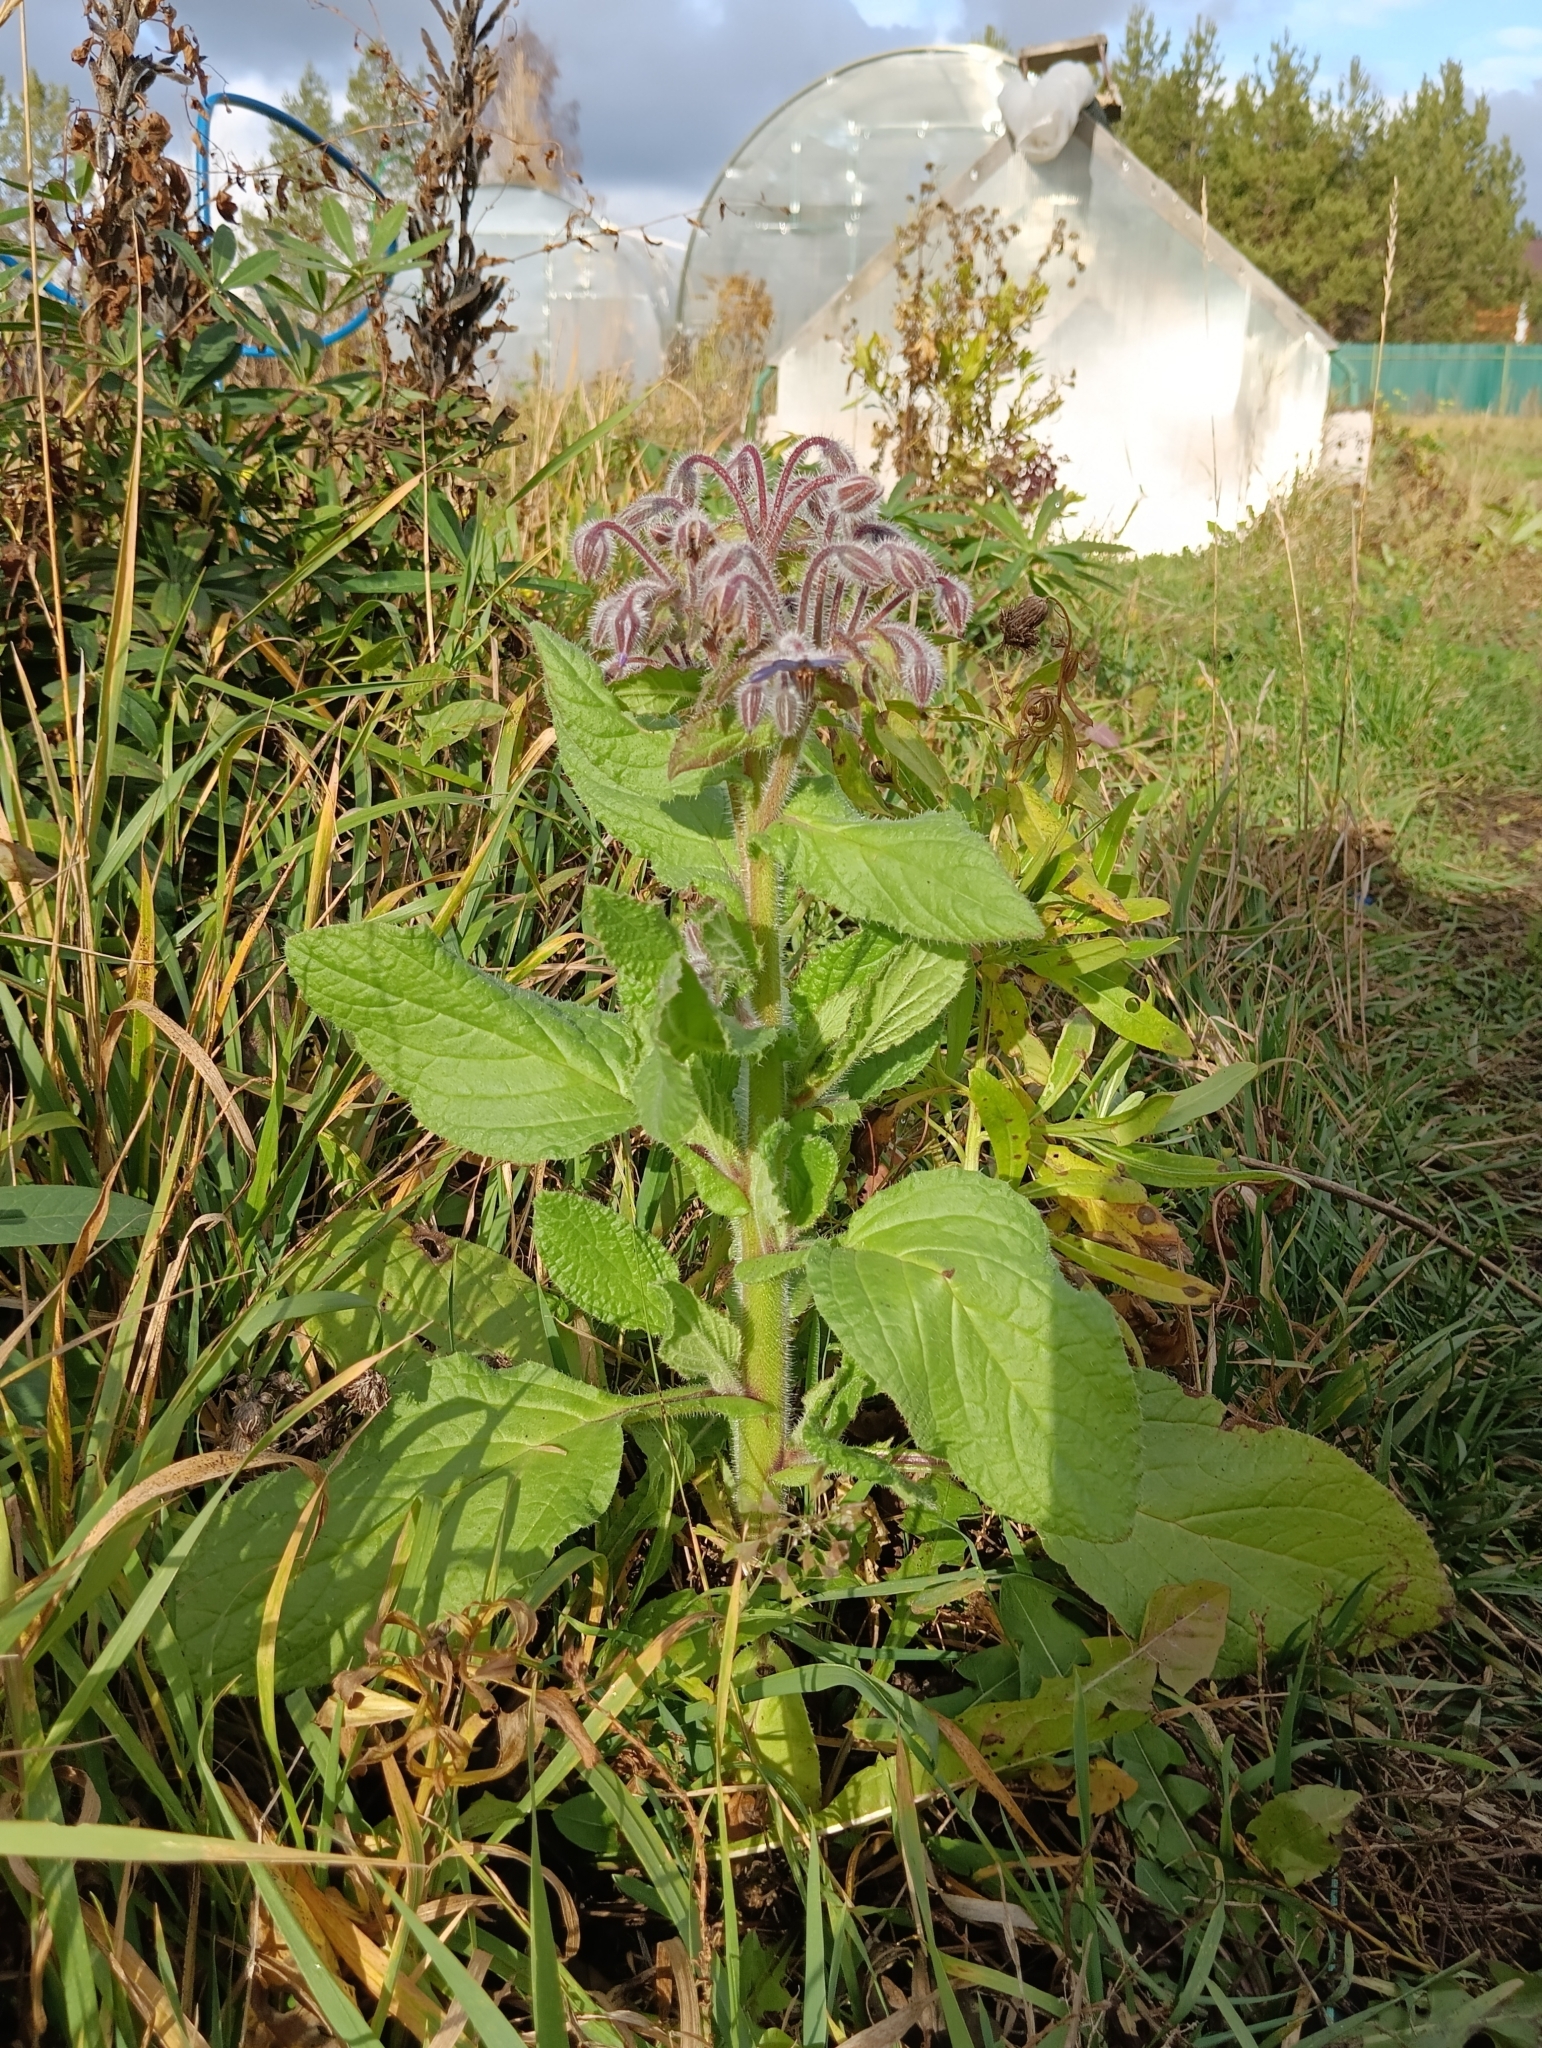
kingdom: Plantae
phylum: Tracheophyta
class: Magnoliopsida
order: Boraginales
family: Boraginaceae
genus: Borago
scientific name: Borago officinalis
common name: Borage
